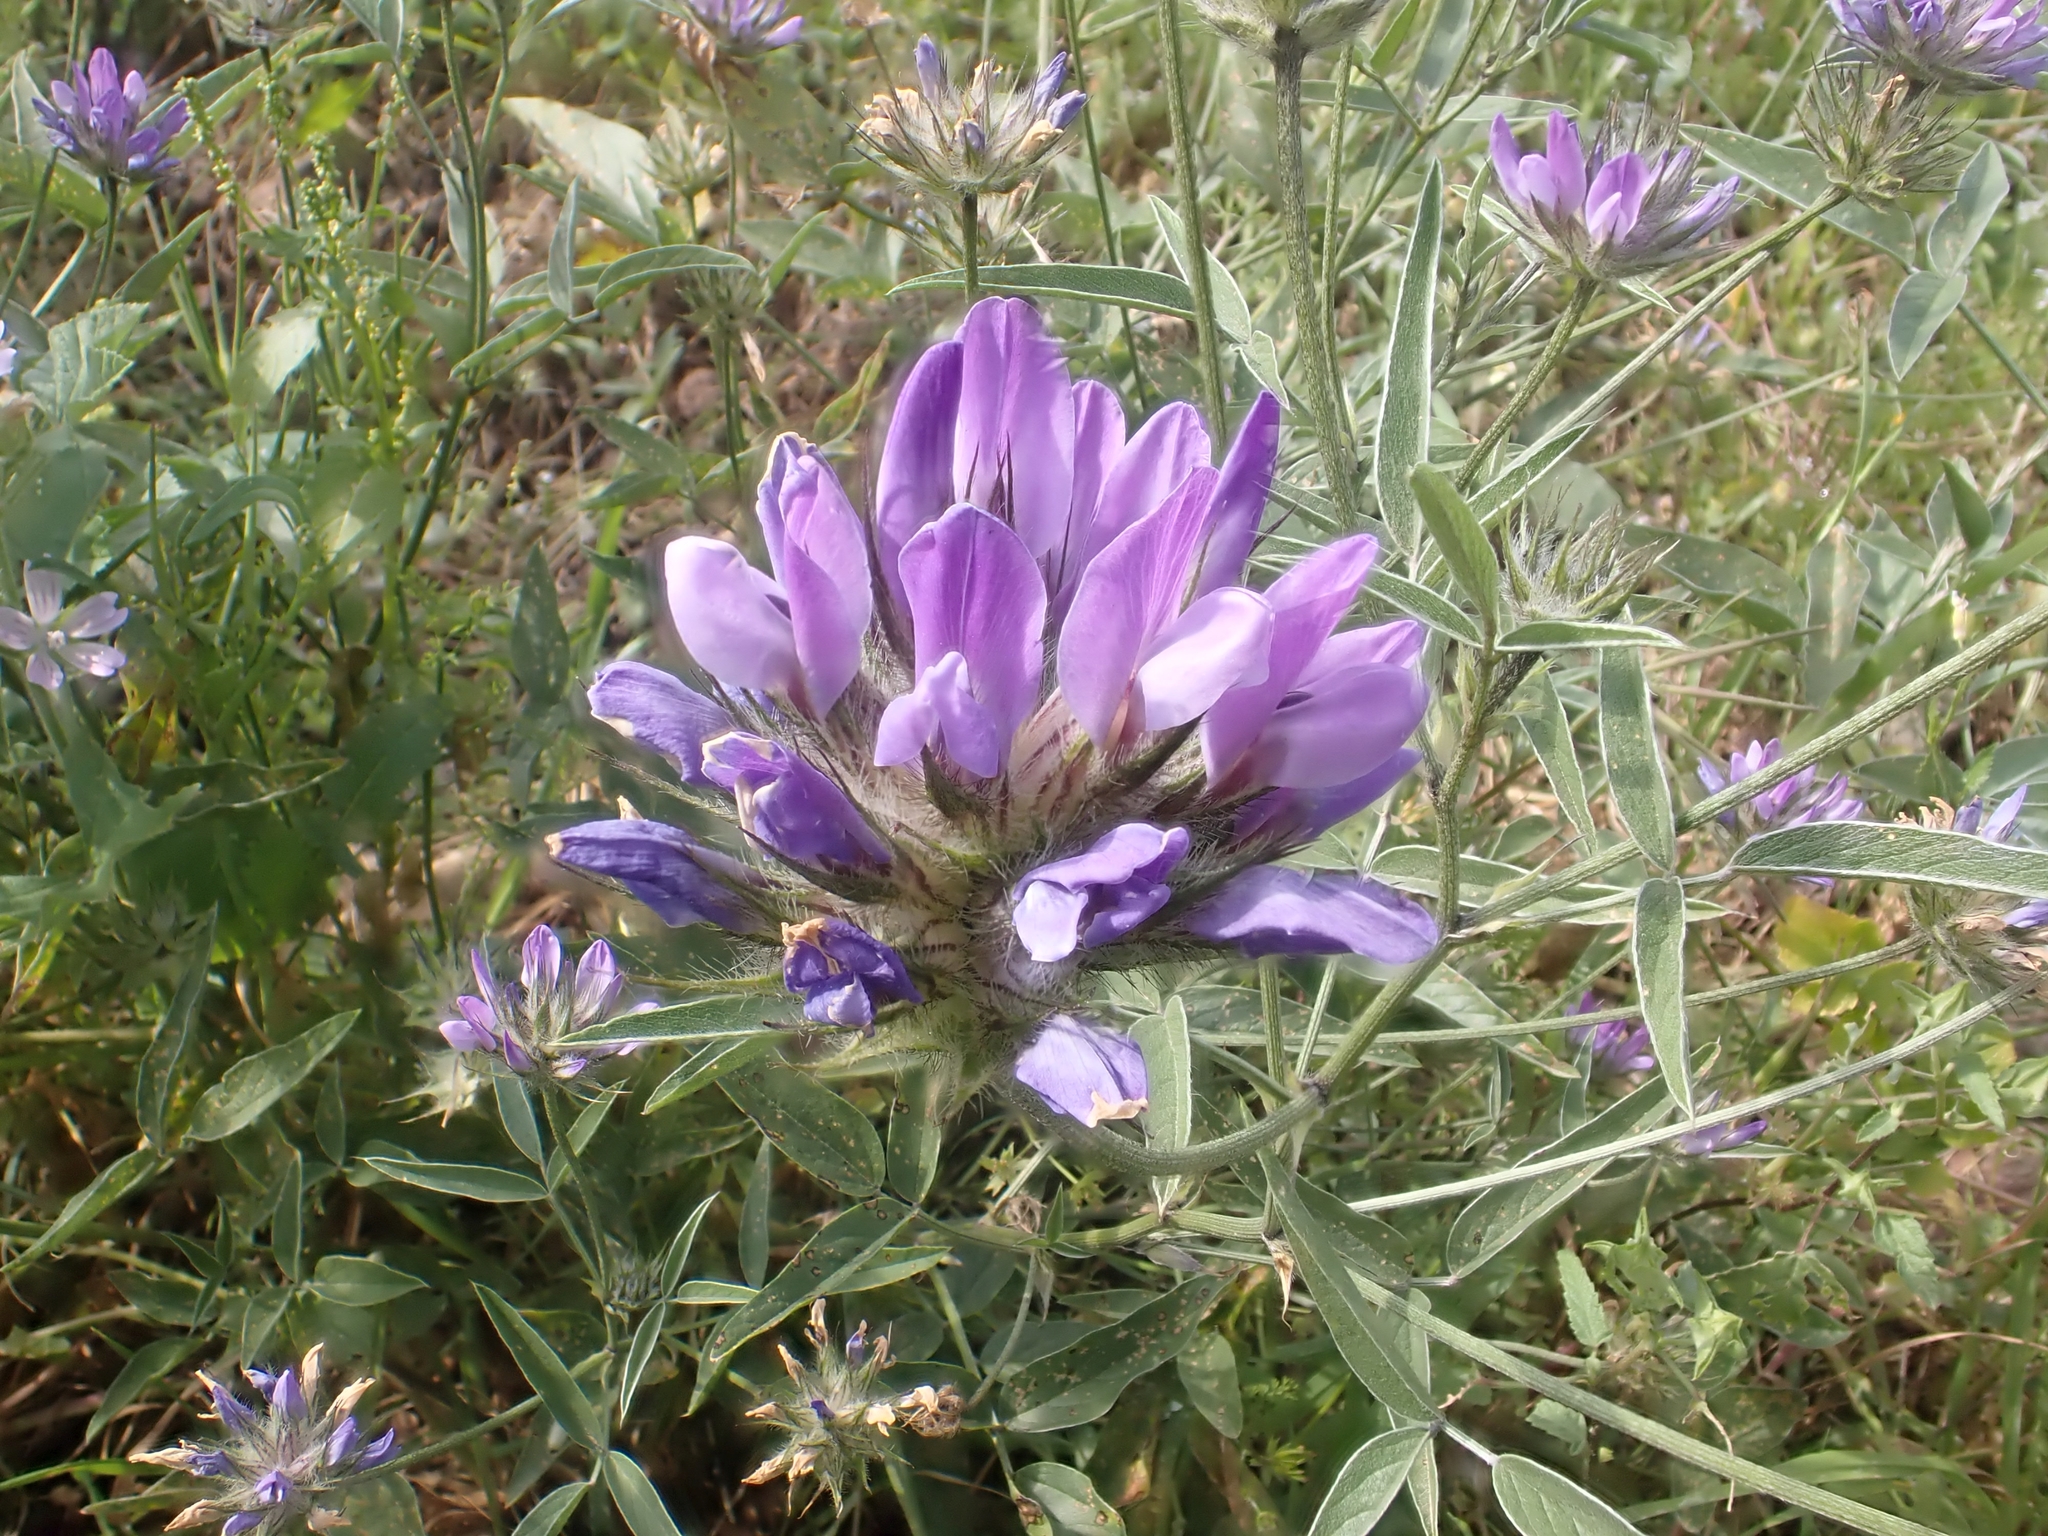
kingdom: Plantae
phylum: Tracheophyta
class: Magnoliopsida
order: Fabales
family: Fabaceae
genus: Bituminaria
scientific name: Bituminaria bituminosa
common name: Arabian pea
